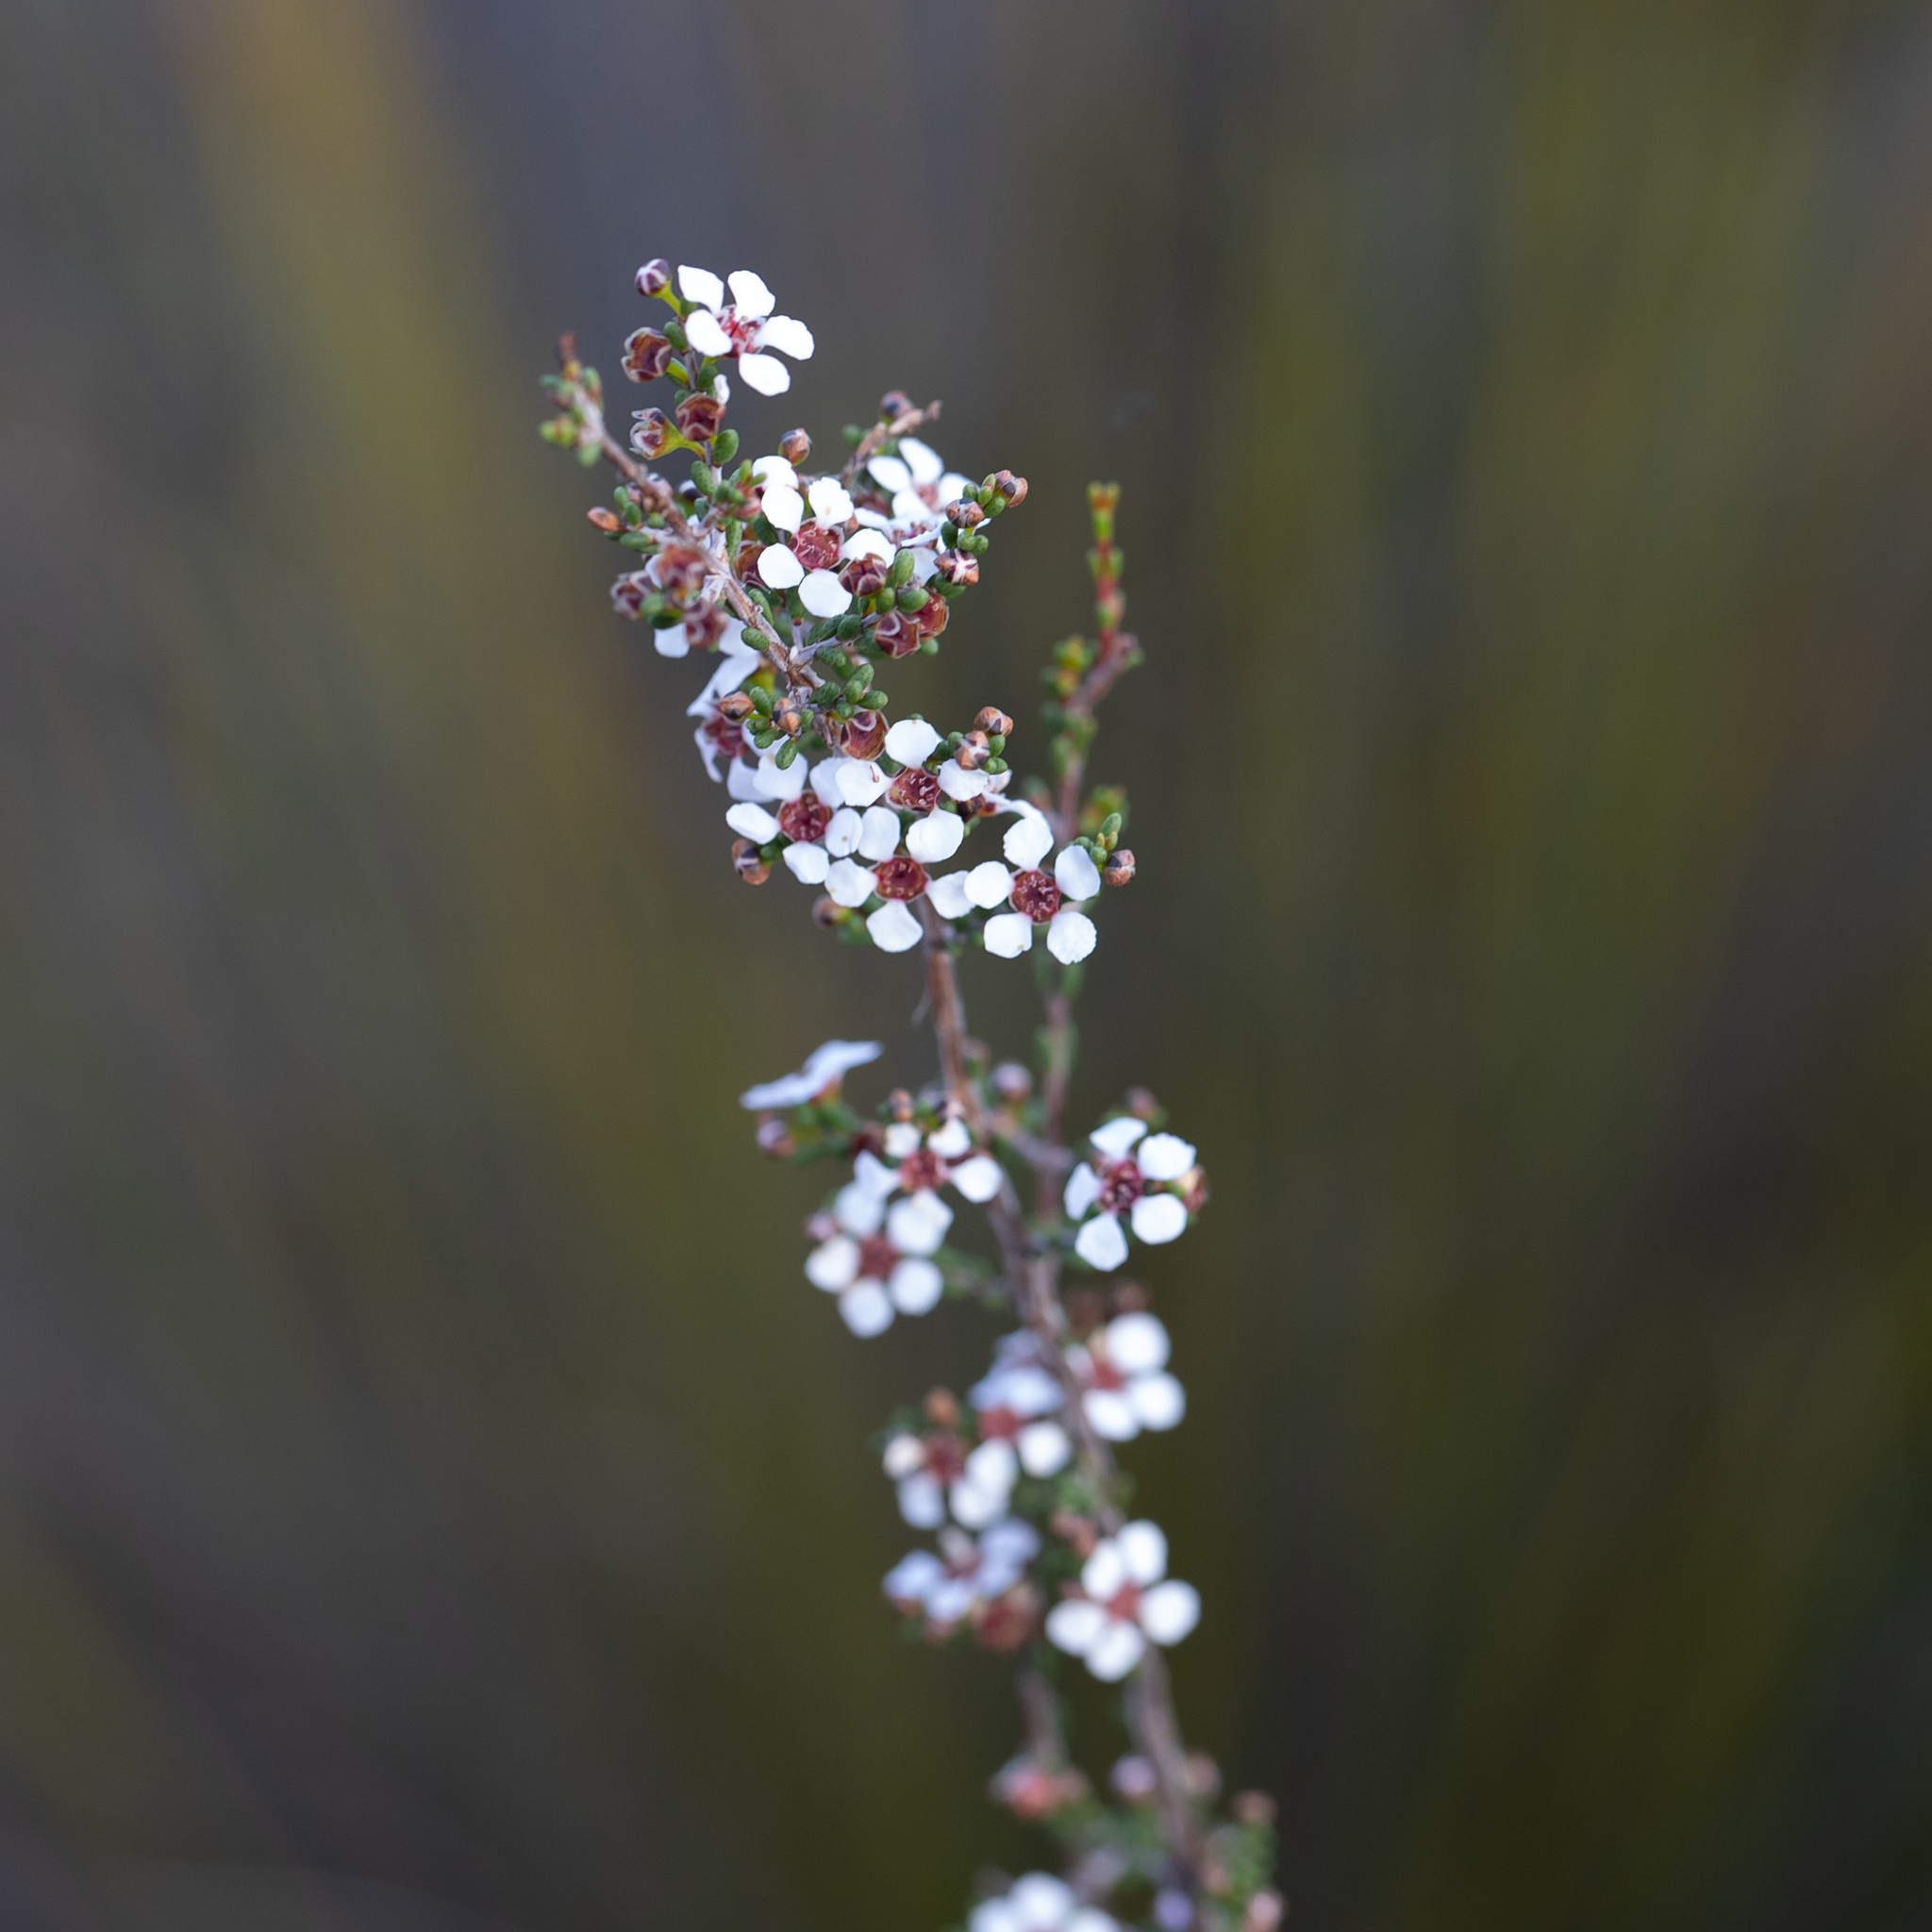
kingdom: Plantae
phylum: Tracheophyta
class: Magnoliopsida
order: Myrtales
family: Myrtaceae
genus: Rinzia
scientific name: Rinzia orientalis
